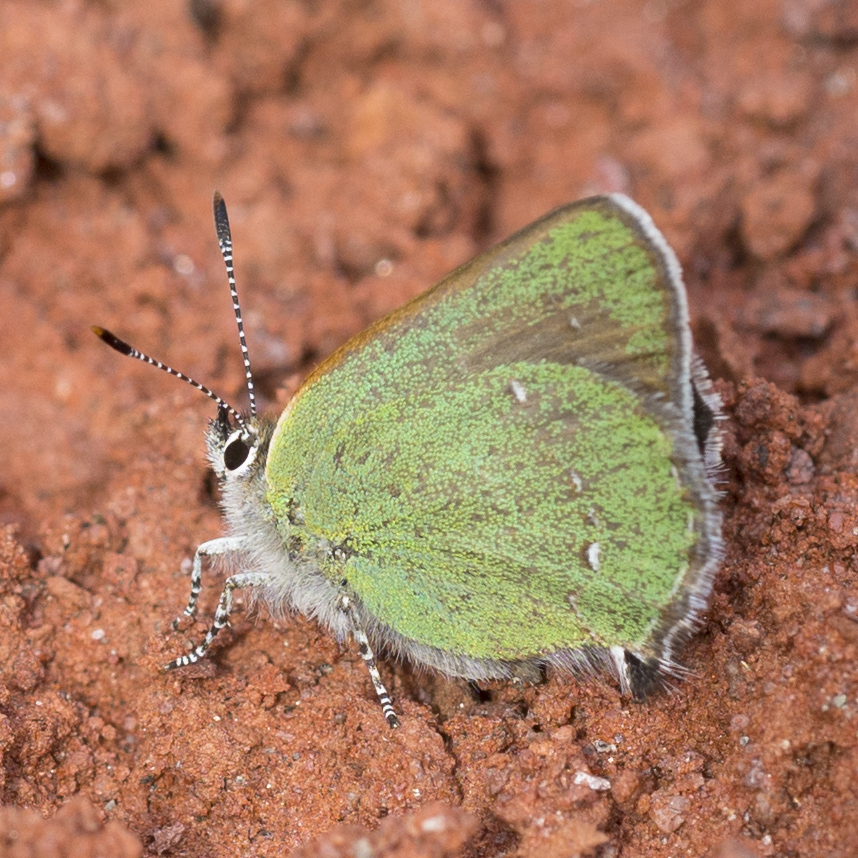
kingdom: Animalia
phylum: Arthropoda
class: Insecta
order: Lepidoptera
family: Lycaenidae
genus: Thecla
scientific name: Thecla sheridanii
